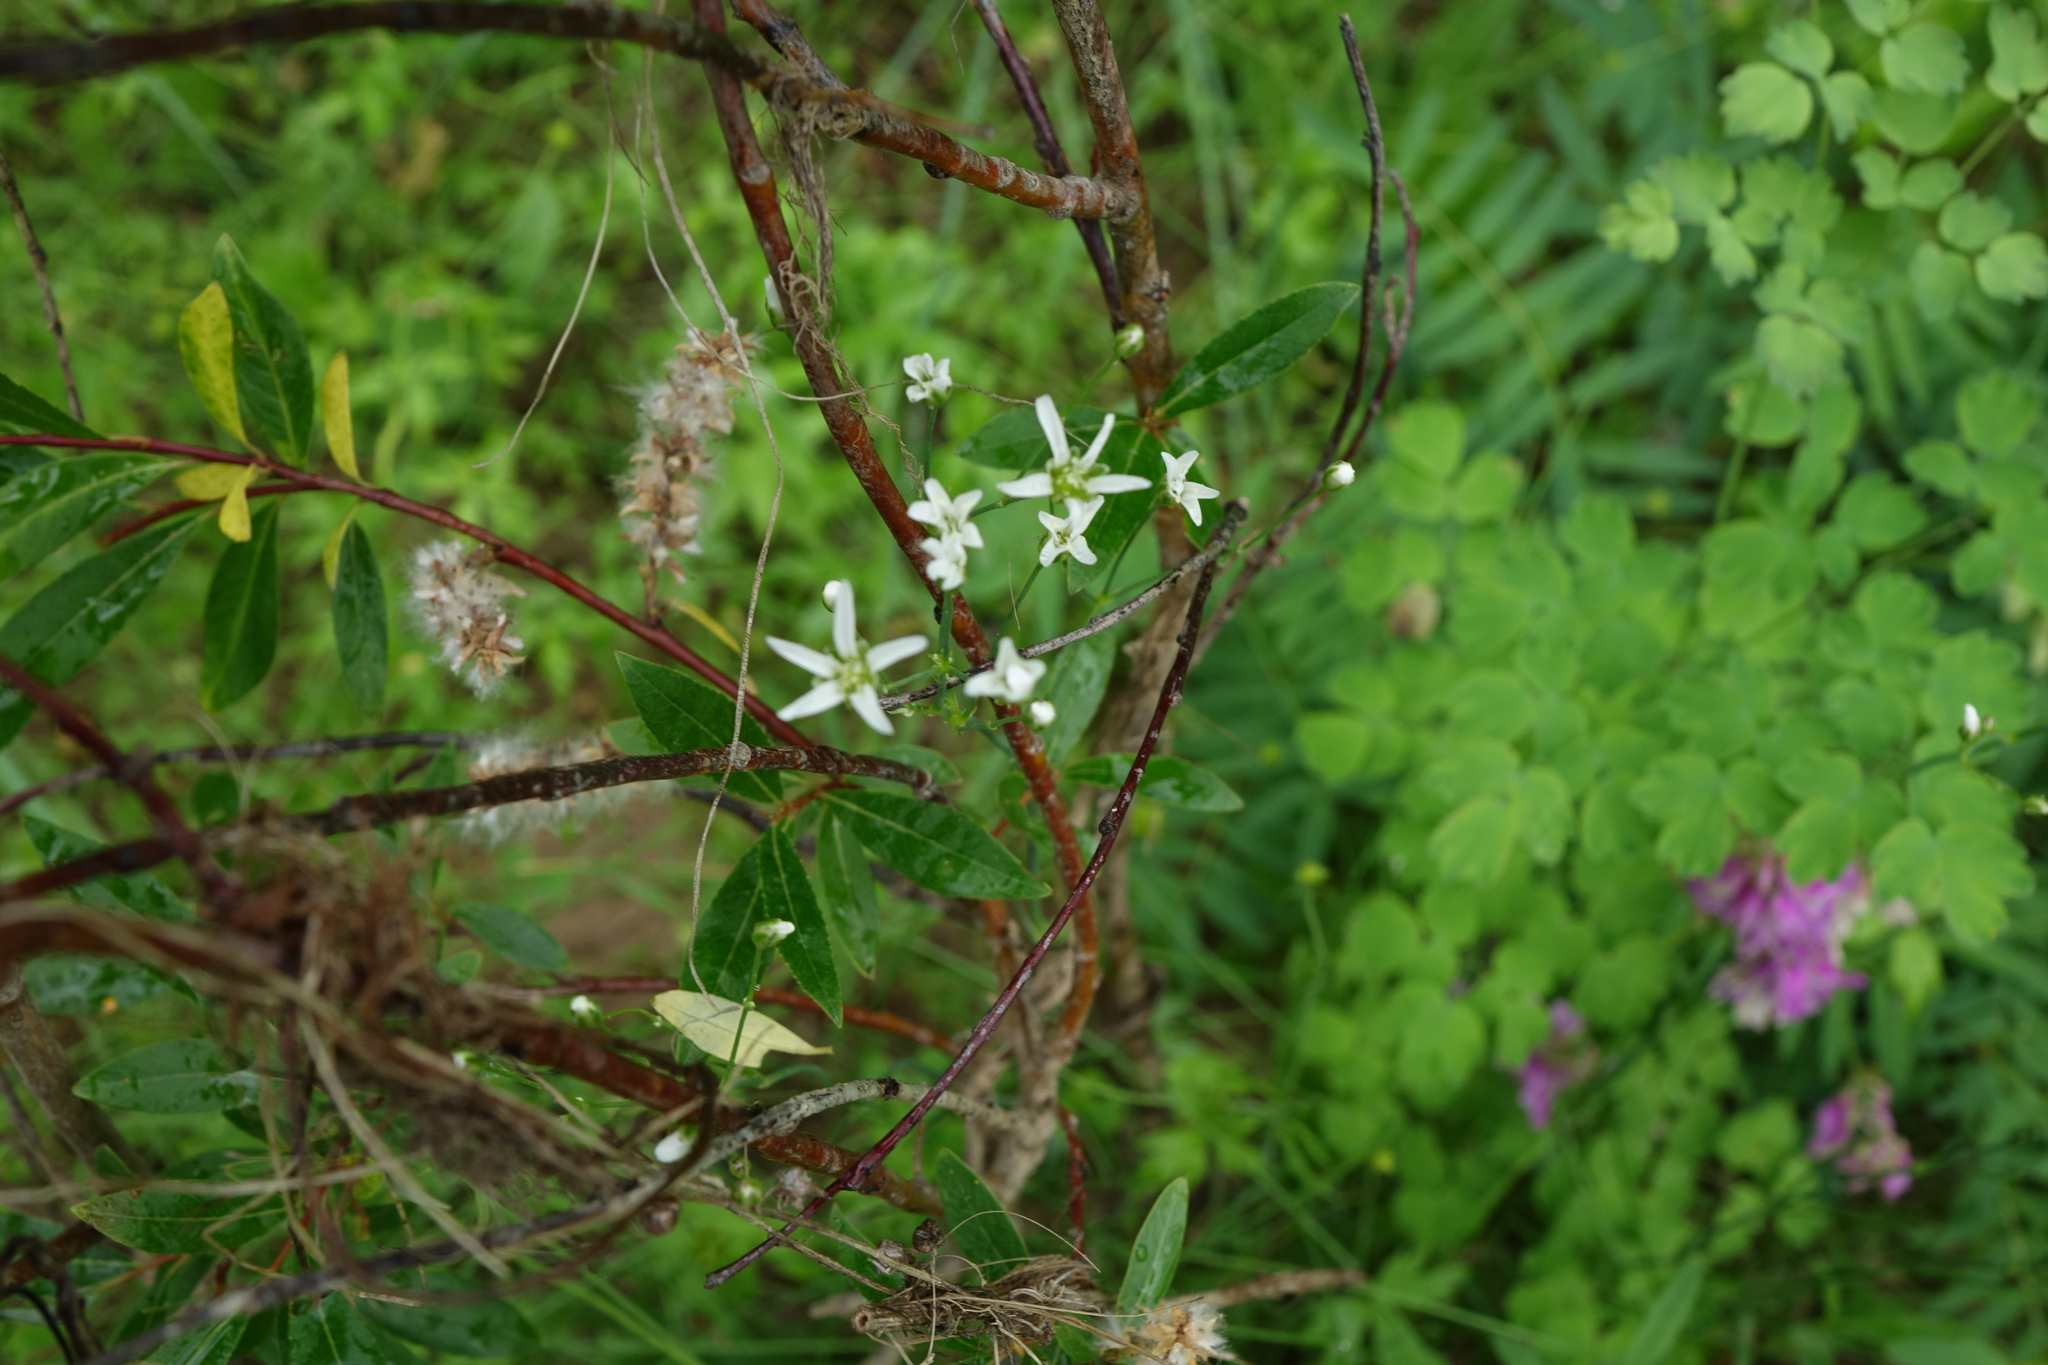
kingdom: Plantae
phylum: Tracheophyta
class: Magnoliopsida
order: Caryophyllales
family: Caryophyllaceae
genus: Eremogone
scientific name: Eremogone saxatilis
